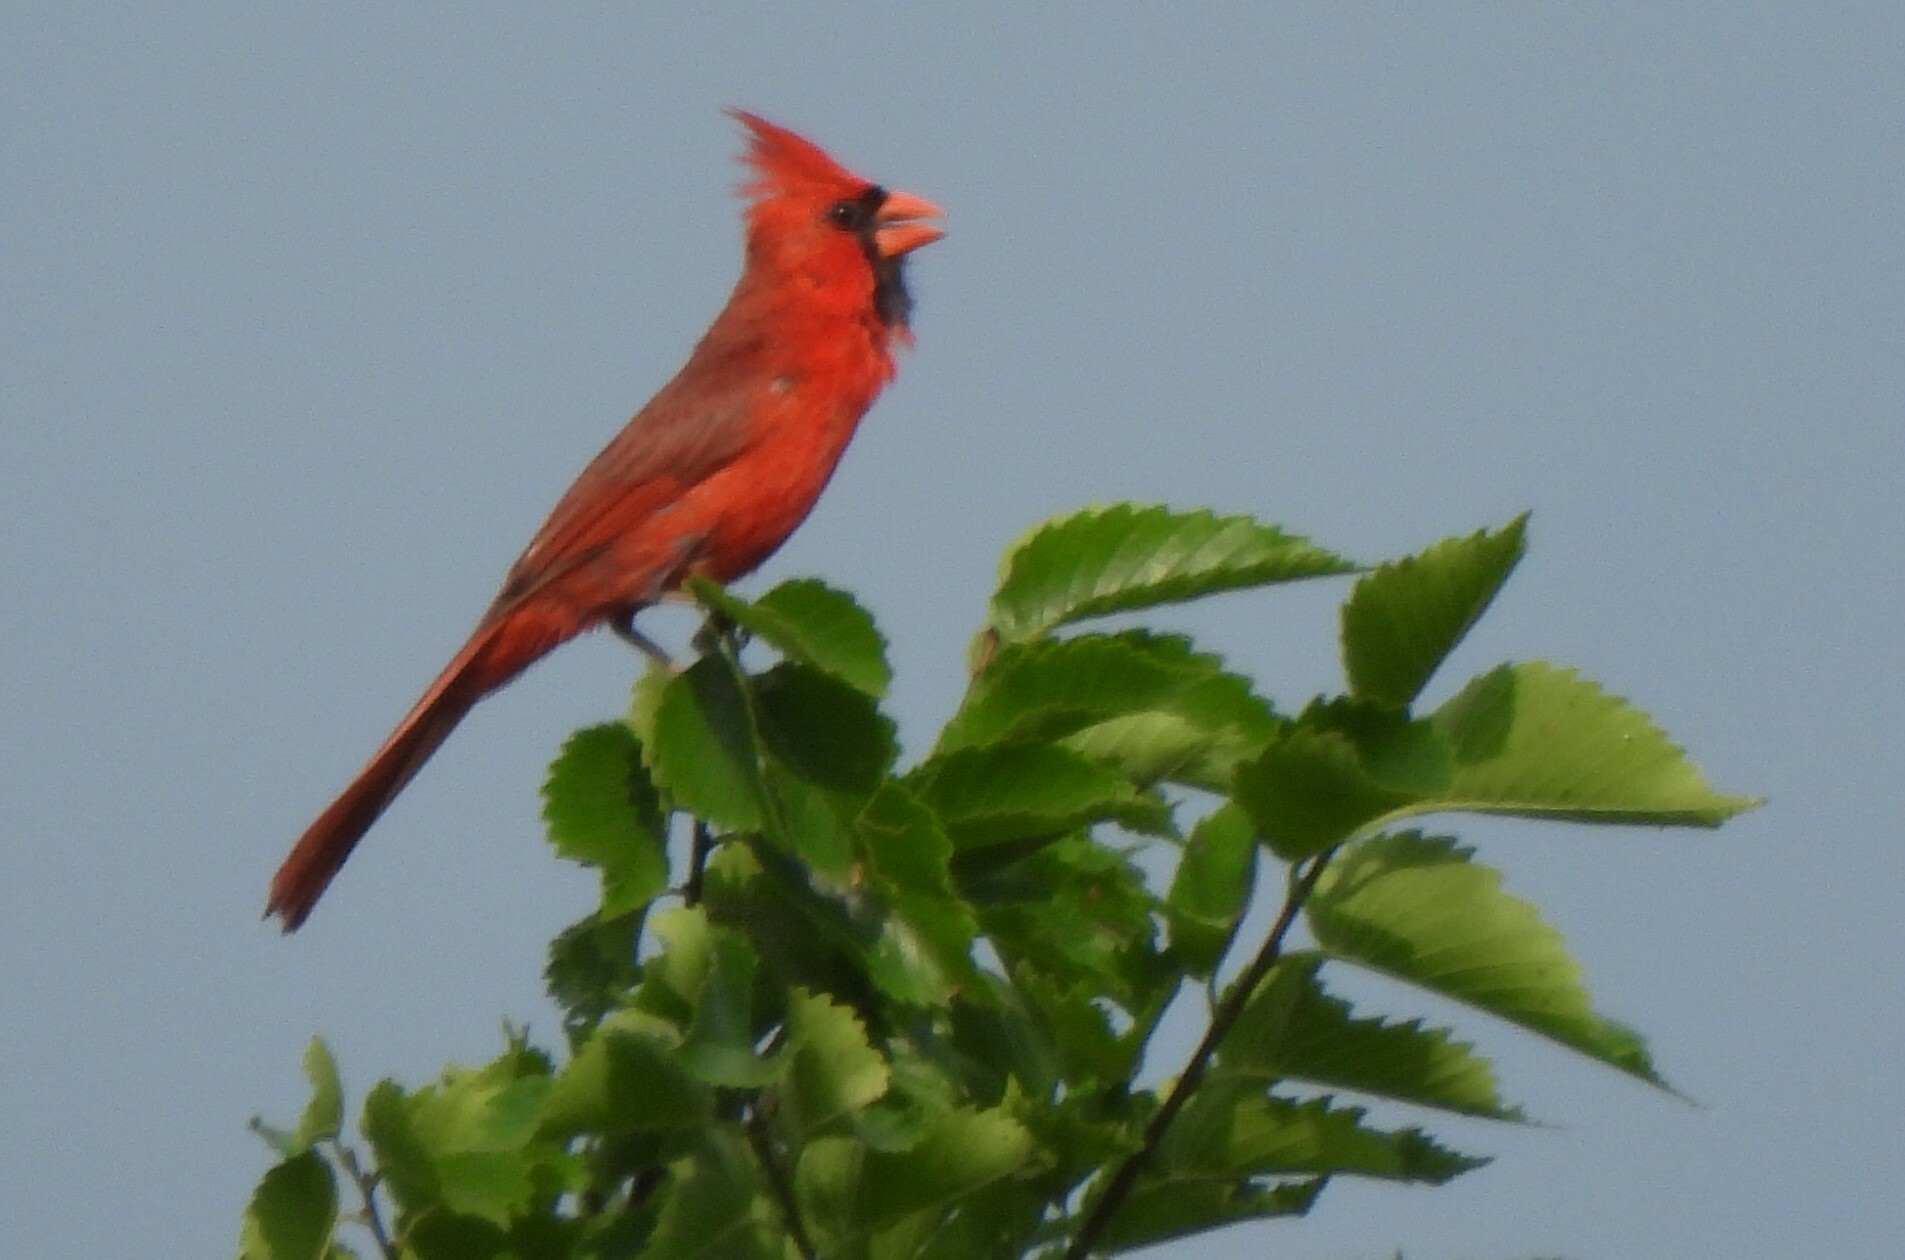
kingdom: Animalia
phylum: Chordata
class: Aves
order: Passeriformes
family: Cardinalidae
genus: Cardinalis
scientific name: Cardinalis cardinalis
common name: Northern cardinal
